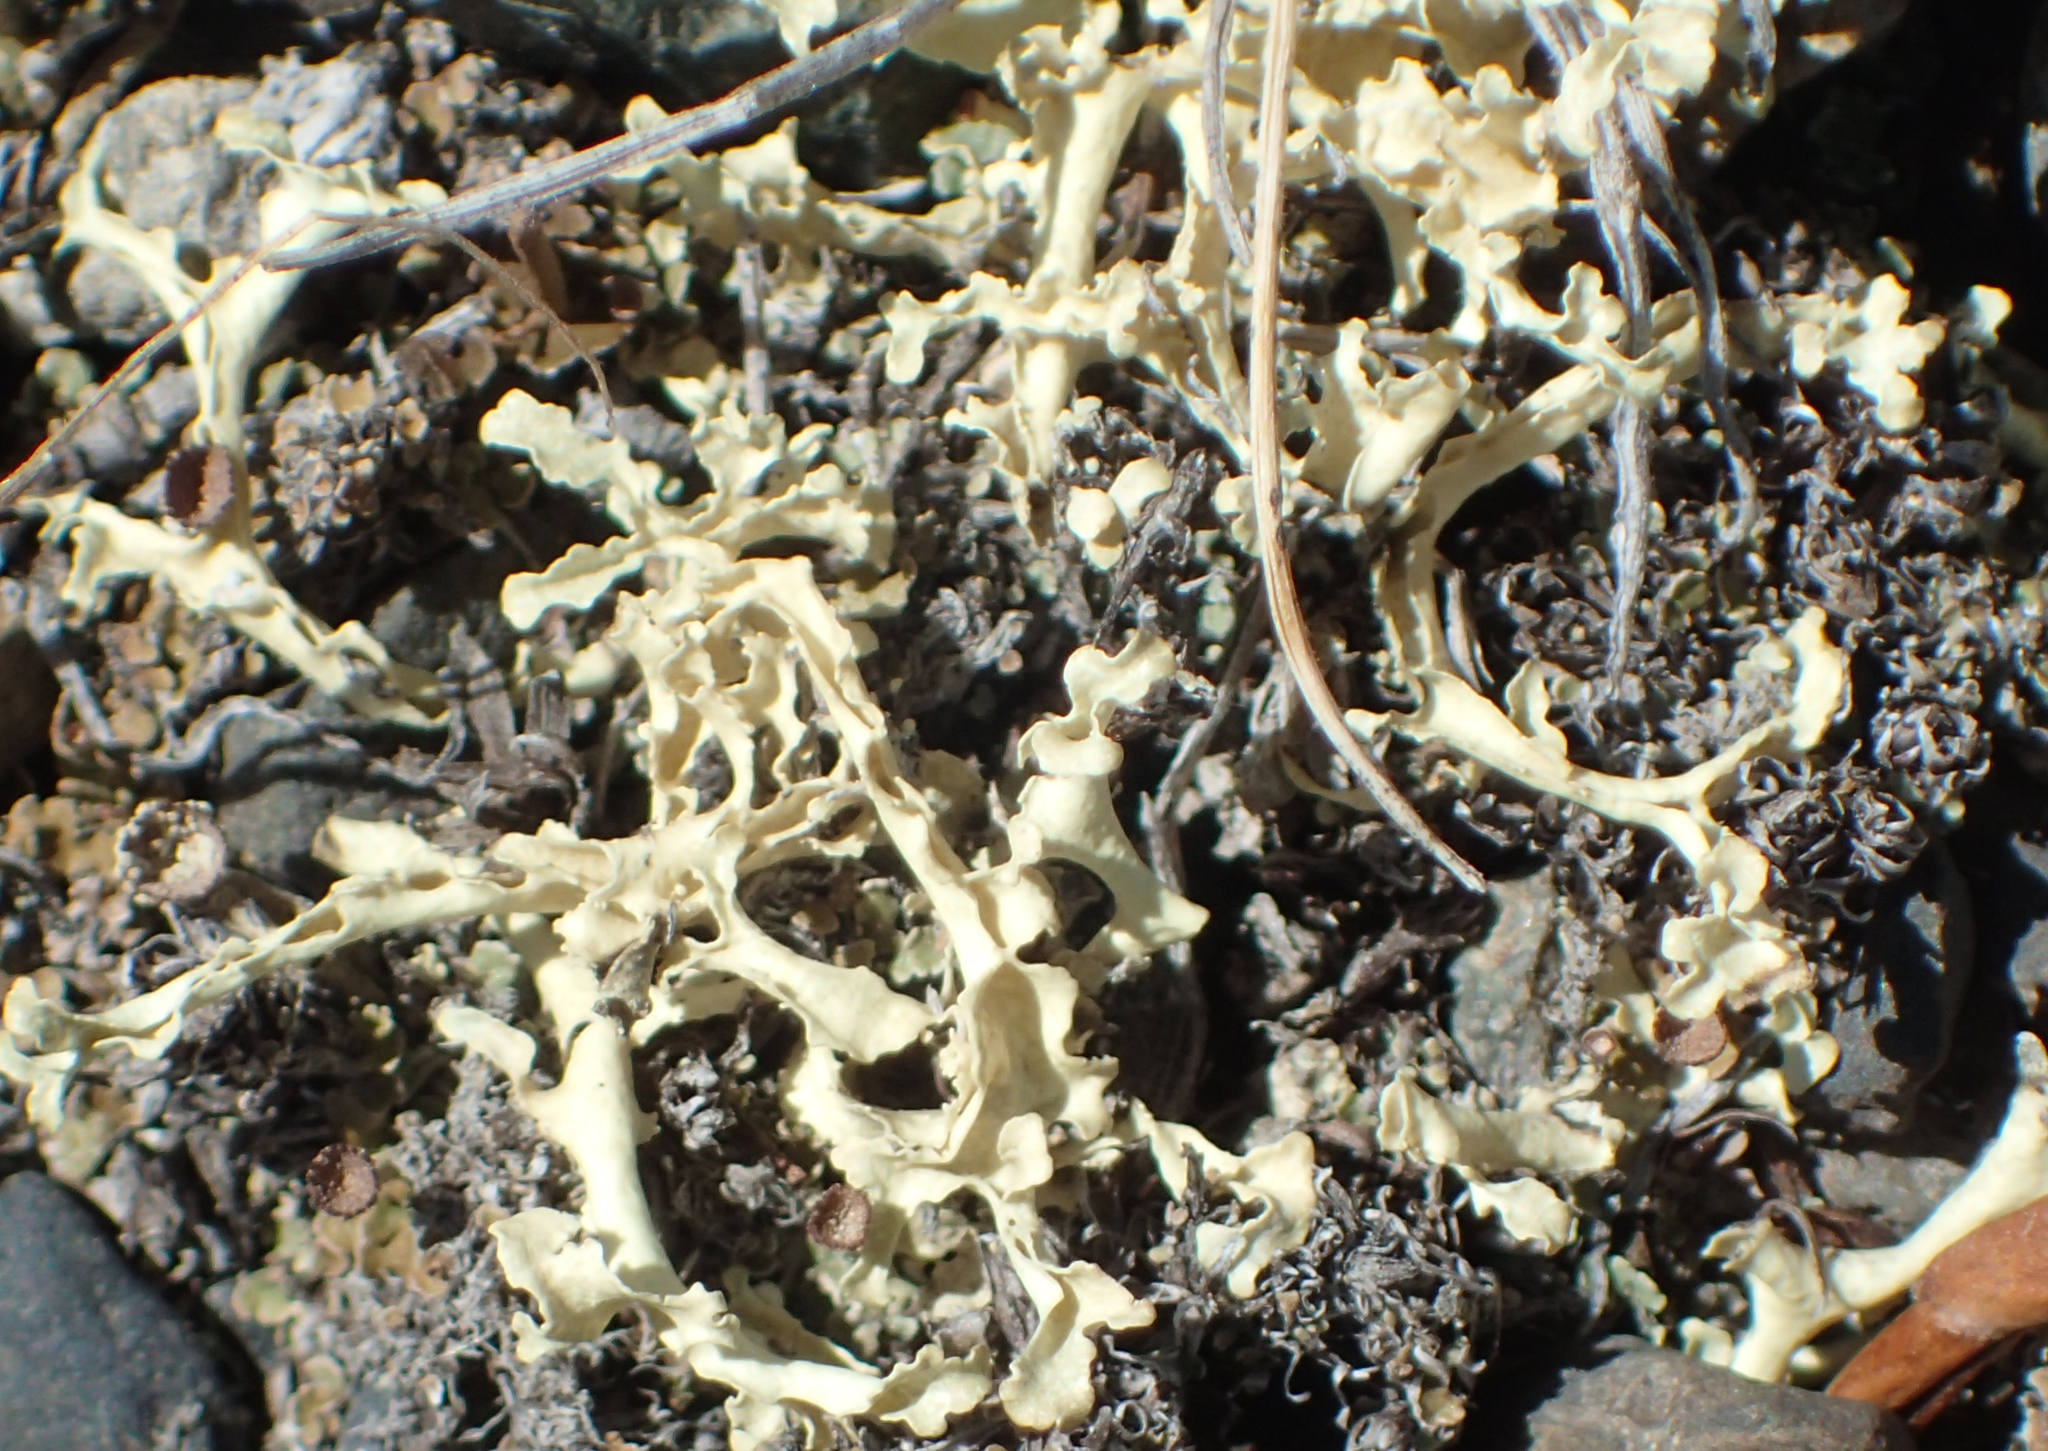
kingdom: Fungi
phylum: Ascomycota
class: Lecanoromycetes
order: Lecanorales
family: Parmeliaceae
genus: Nephromopsis
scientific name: Nephromopsis cucullata
